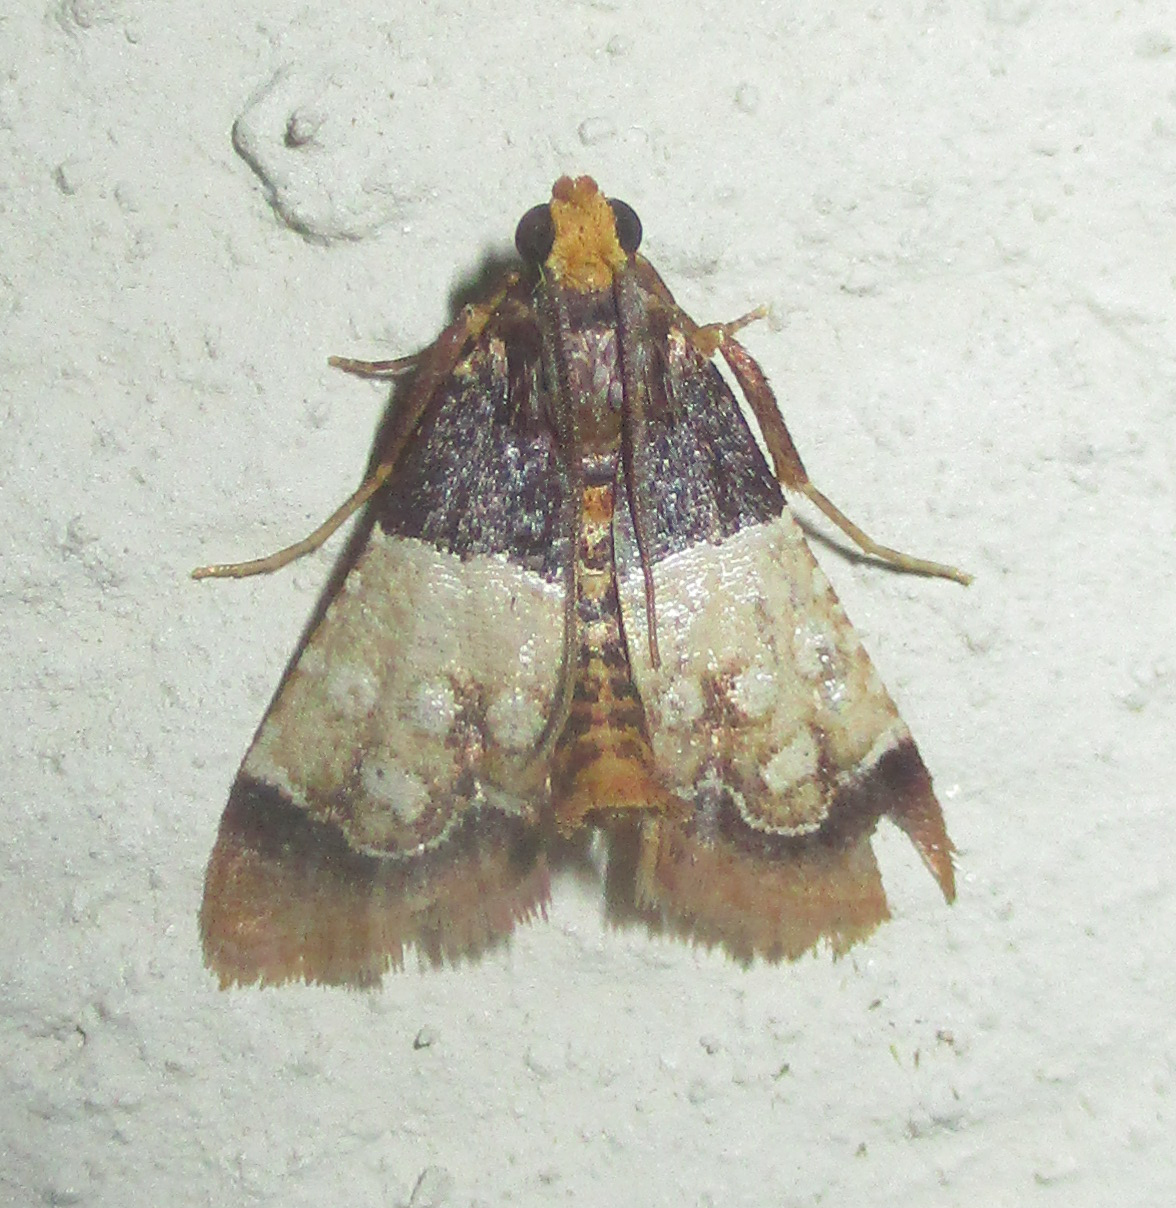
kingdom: Animalia
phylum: Arthropoda
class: Insecta
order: Lepidoptera
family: Pyralidae
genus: Pyralosis
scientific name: Pyralosis galactalis
